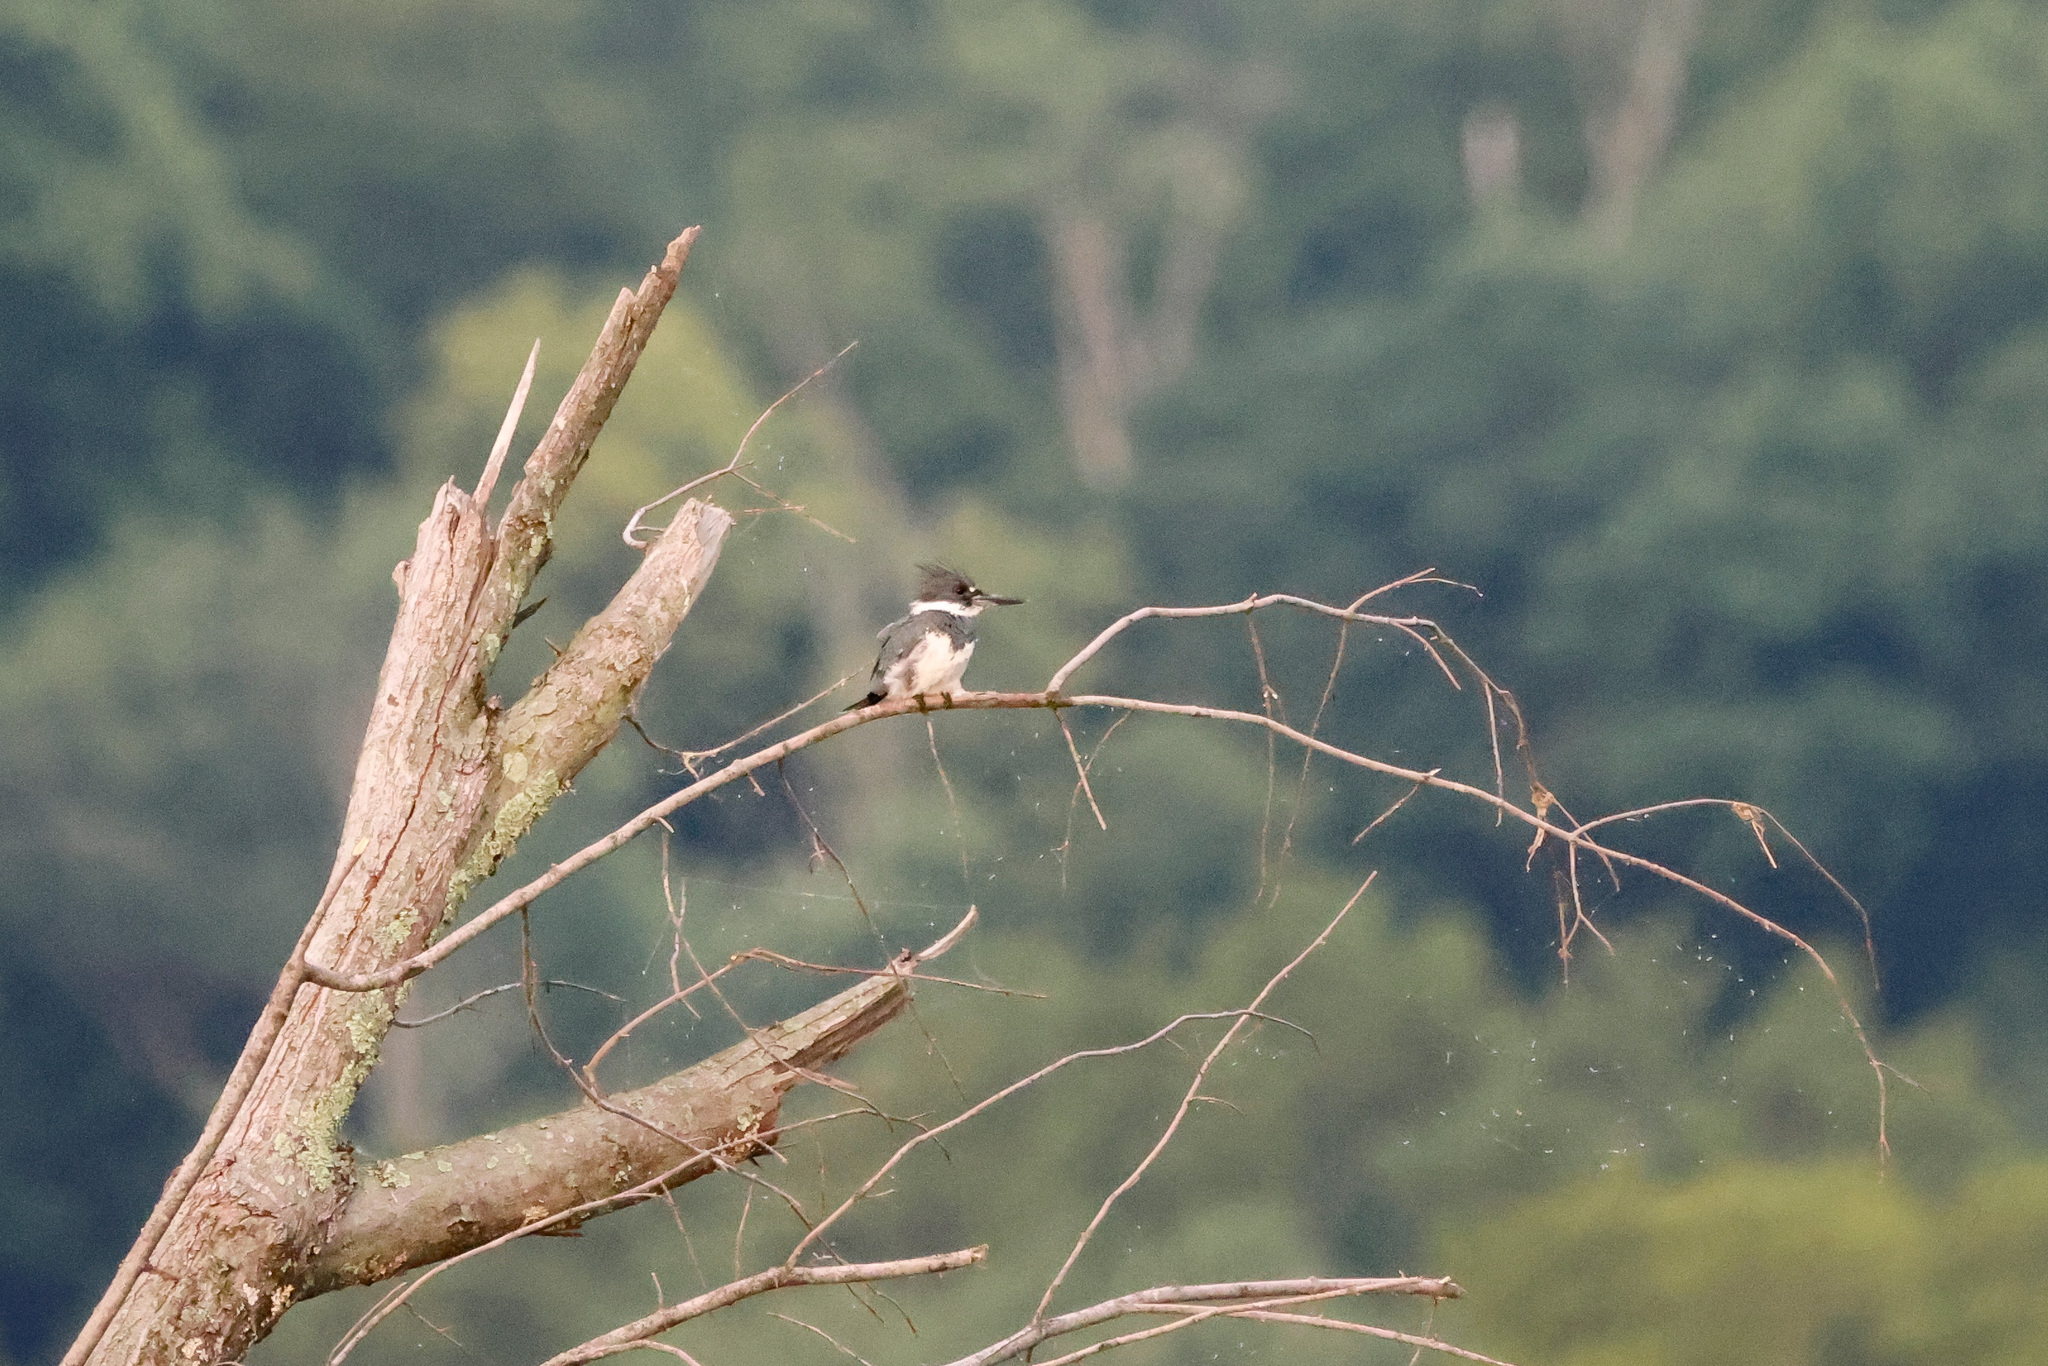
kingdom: Animalia
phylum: Chordata
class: Aves
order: Coraciiformes
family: Alcedinidae
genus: Megaceryle
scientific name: Megaceryle alcyon
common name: Belted kingfisher
